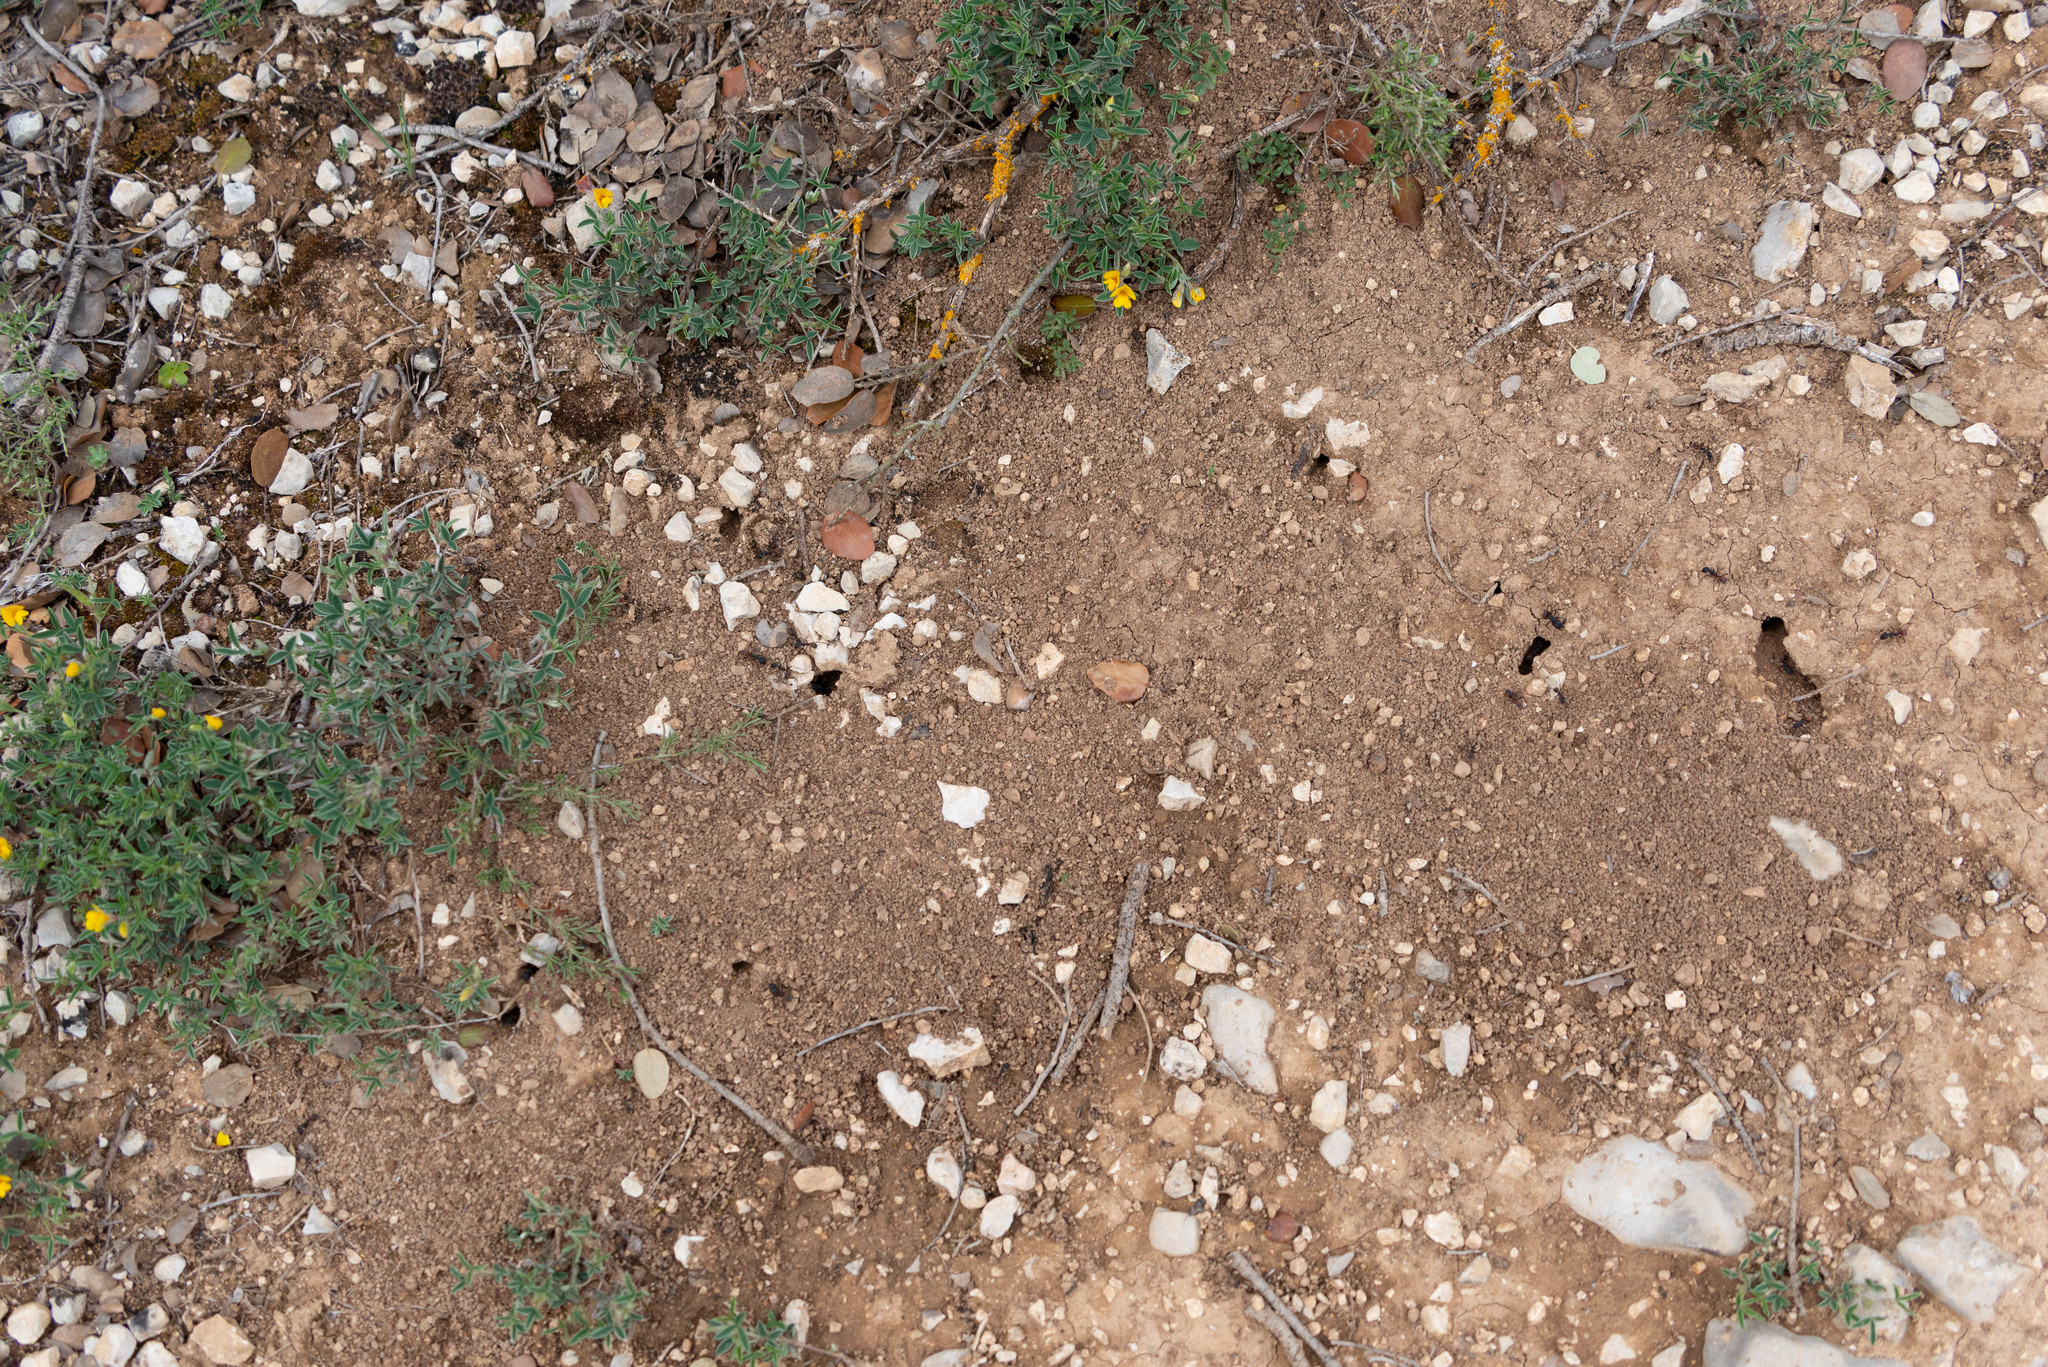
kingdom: Animalia
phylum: Arthropoda
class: Insecta
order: Hymenoptera
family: Formicidae
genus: Camponotus
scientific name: Camponotus cruentatus
